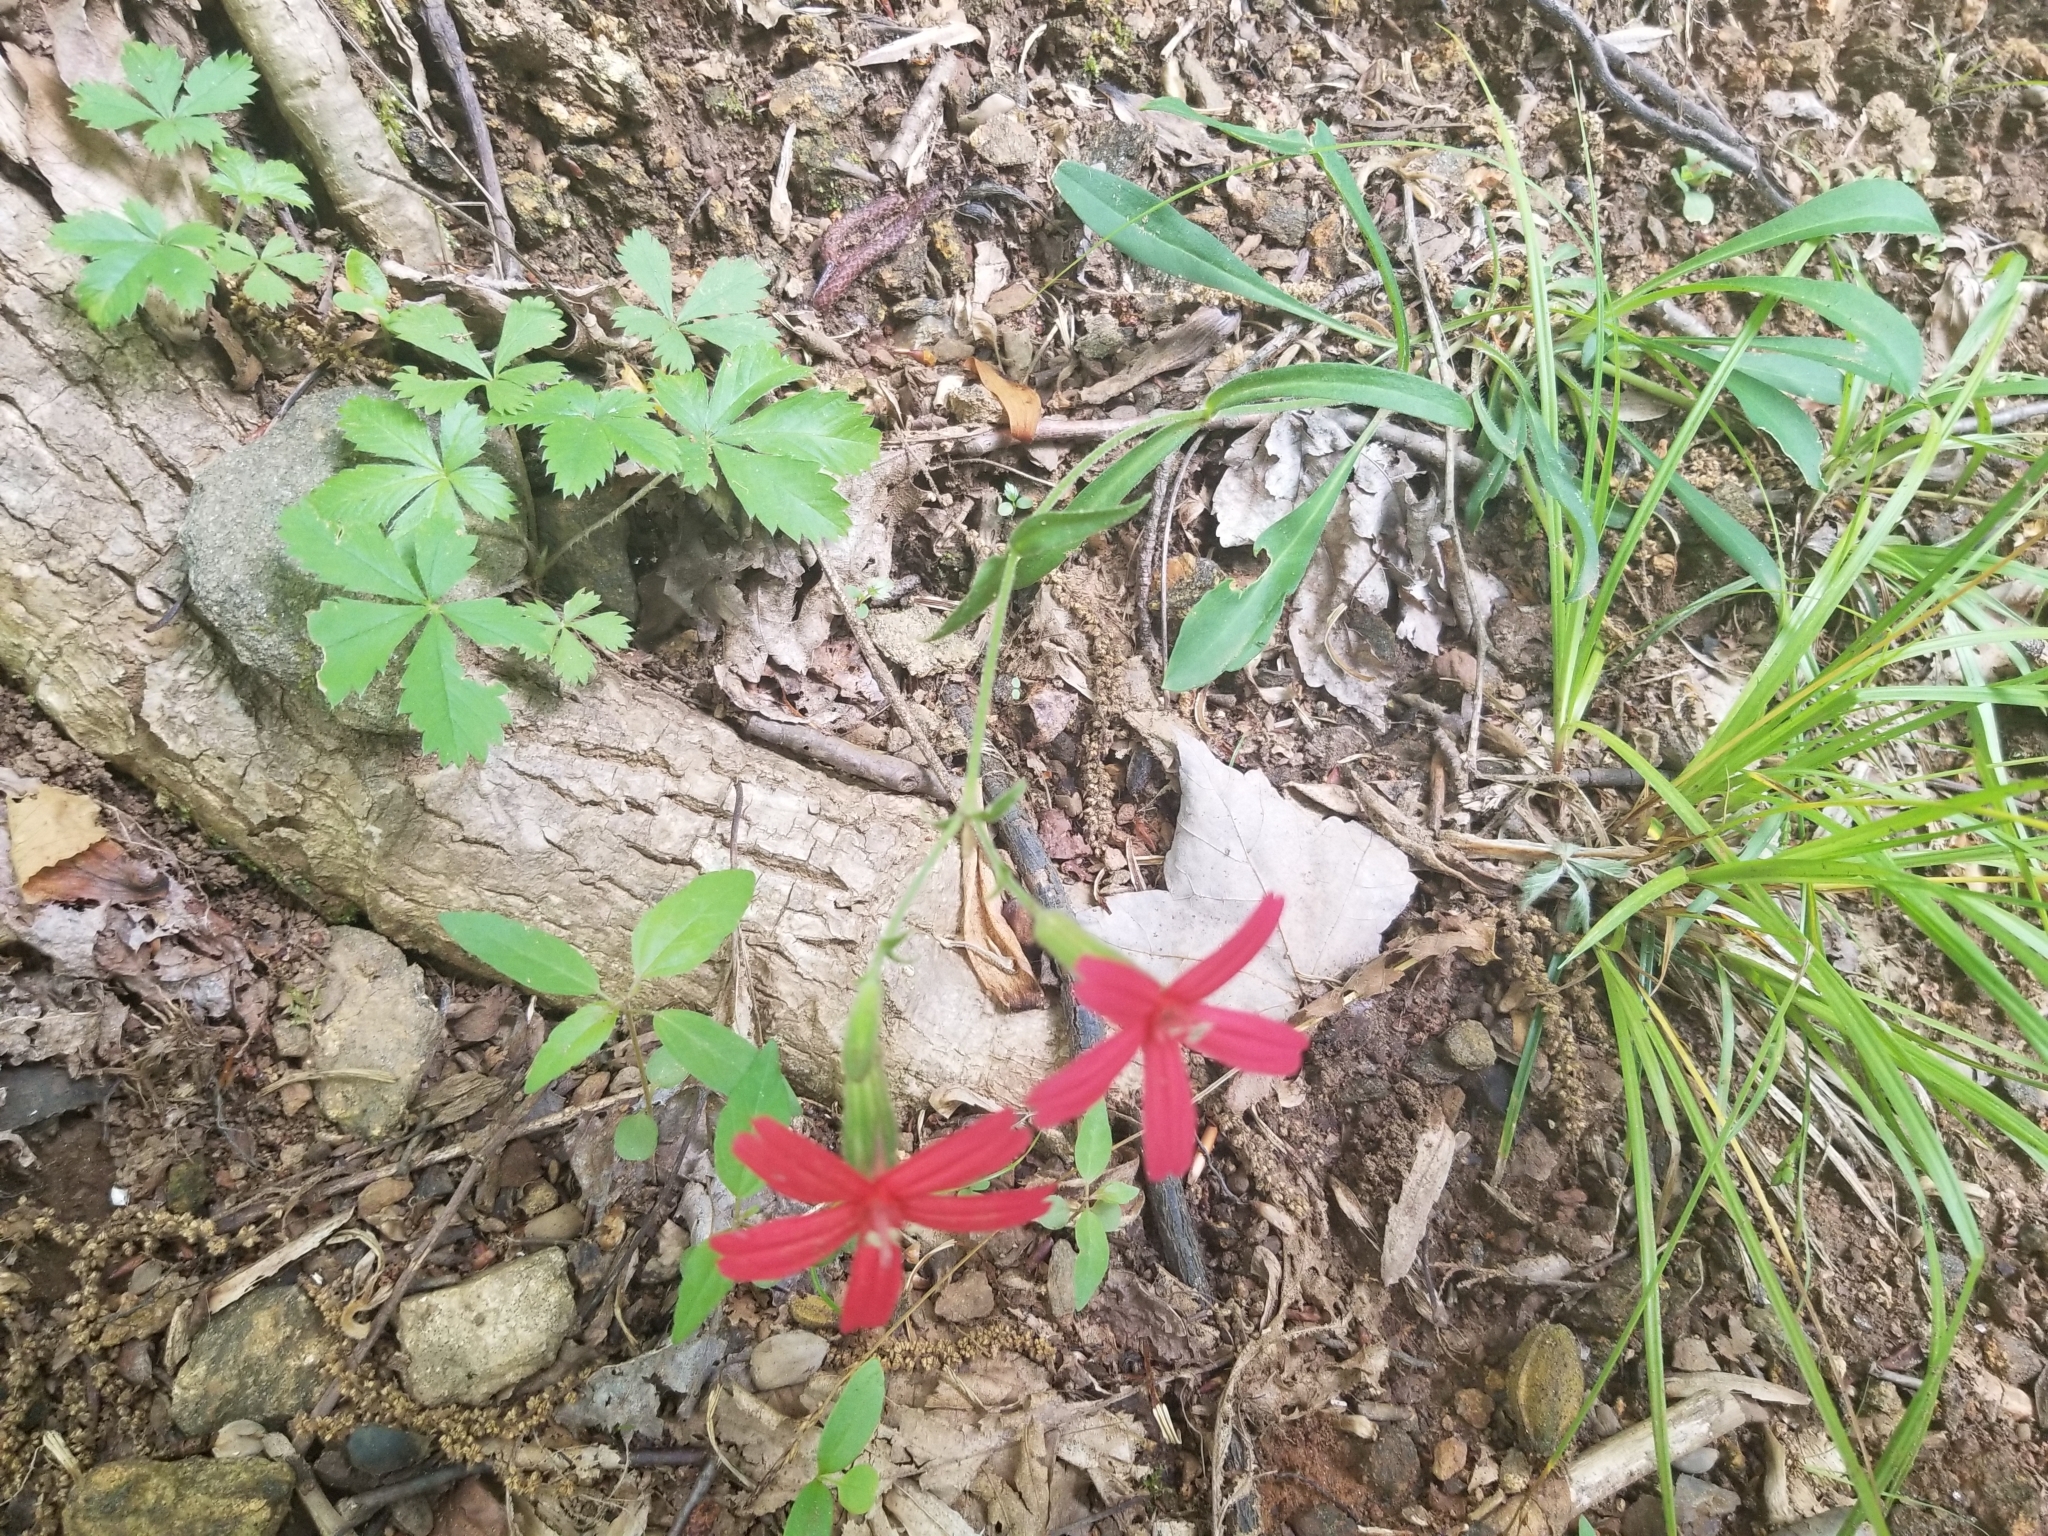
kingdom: Plantae
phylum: Tracheophyta
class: Magnoliopsida
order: Caryophyllales
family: Caryophyllaceae
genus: Silene
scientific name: Silene virginica
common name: Fire-pink
